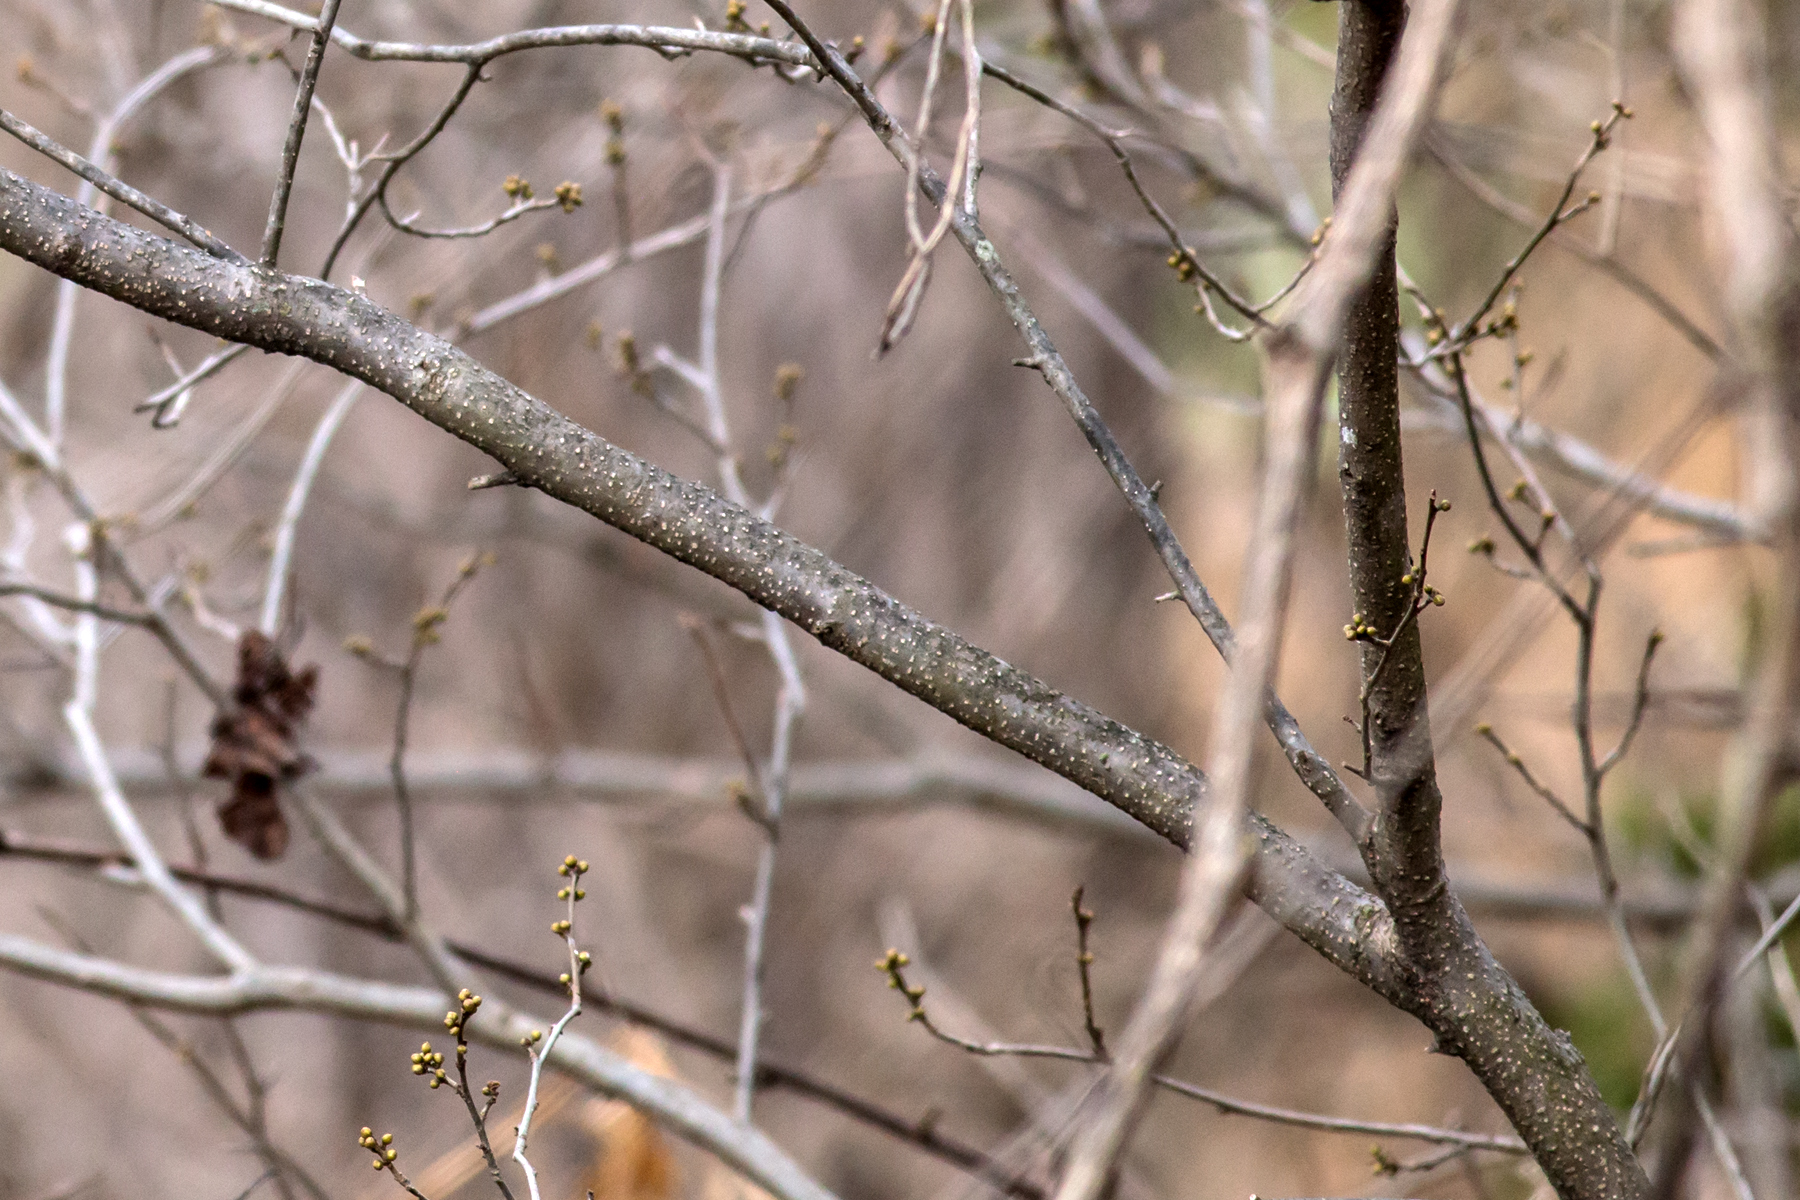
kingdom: Plantae
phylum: Tracheophyta
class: Magnoliopsida
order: Laurales
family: Lauraceae
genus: Lindera
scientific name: Lindera benzoin
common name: Spicebush
